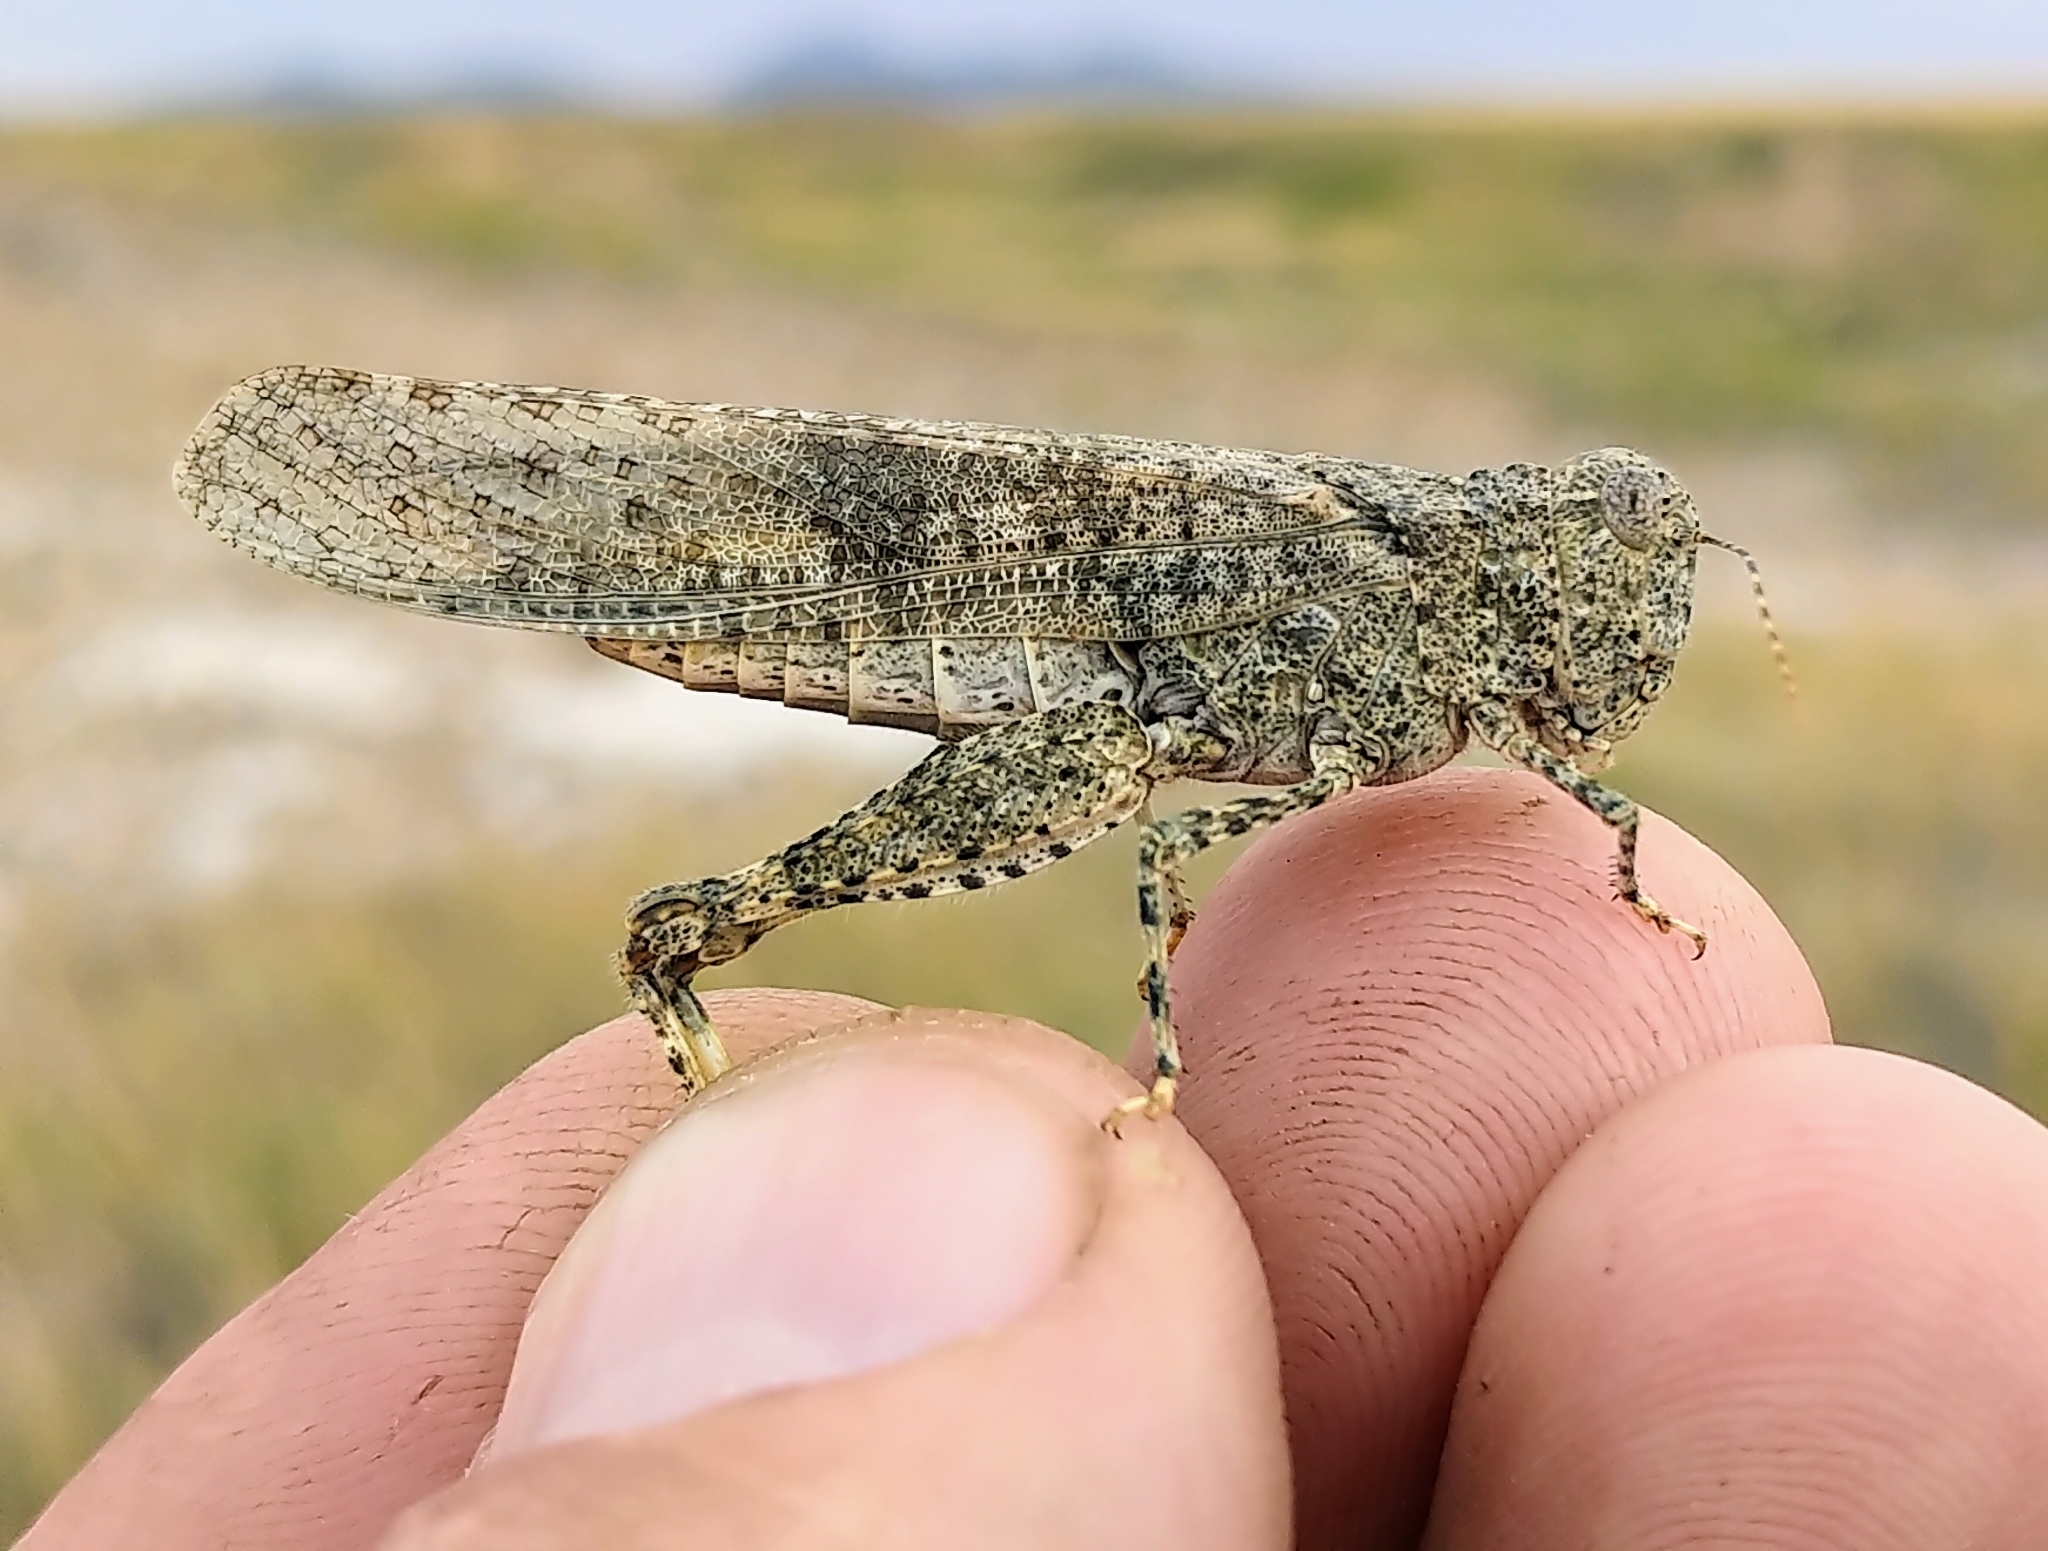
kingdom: Animalia
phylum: Arthropoda
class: Insecta
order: Orthoptera
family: Acrididae
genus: Circotettix
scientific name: Circotettix rabula
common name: Wrangler grasshopper
